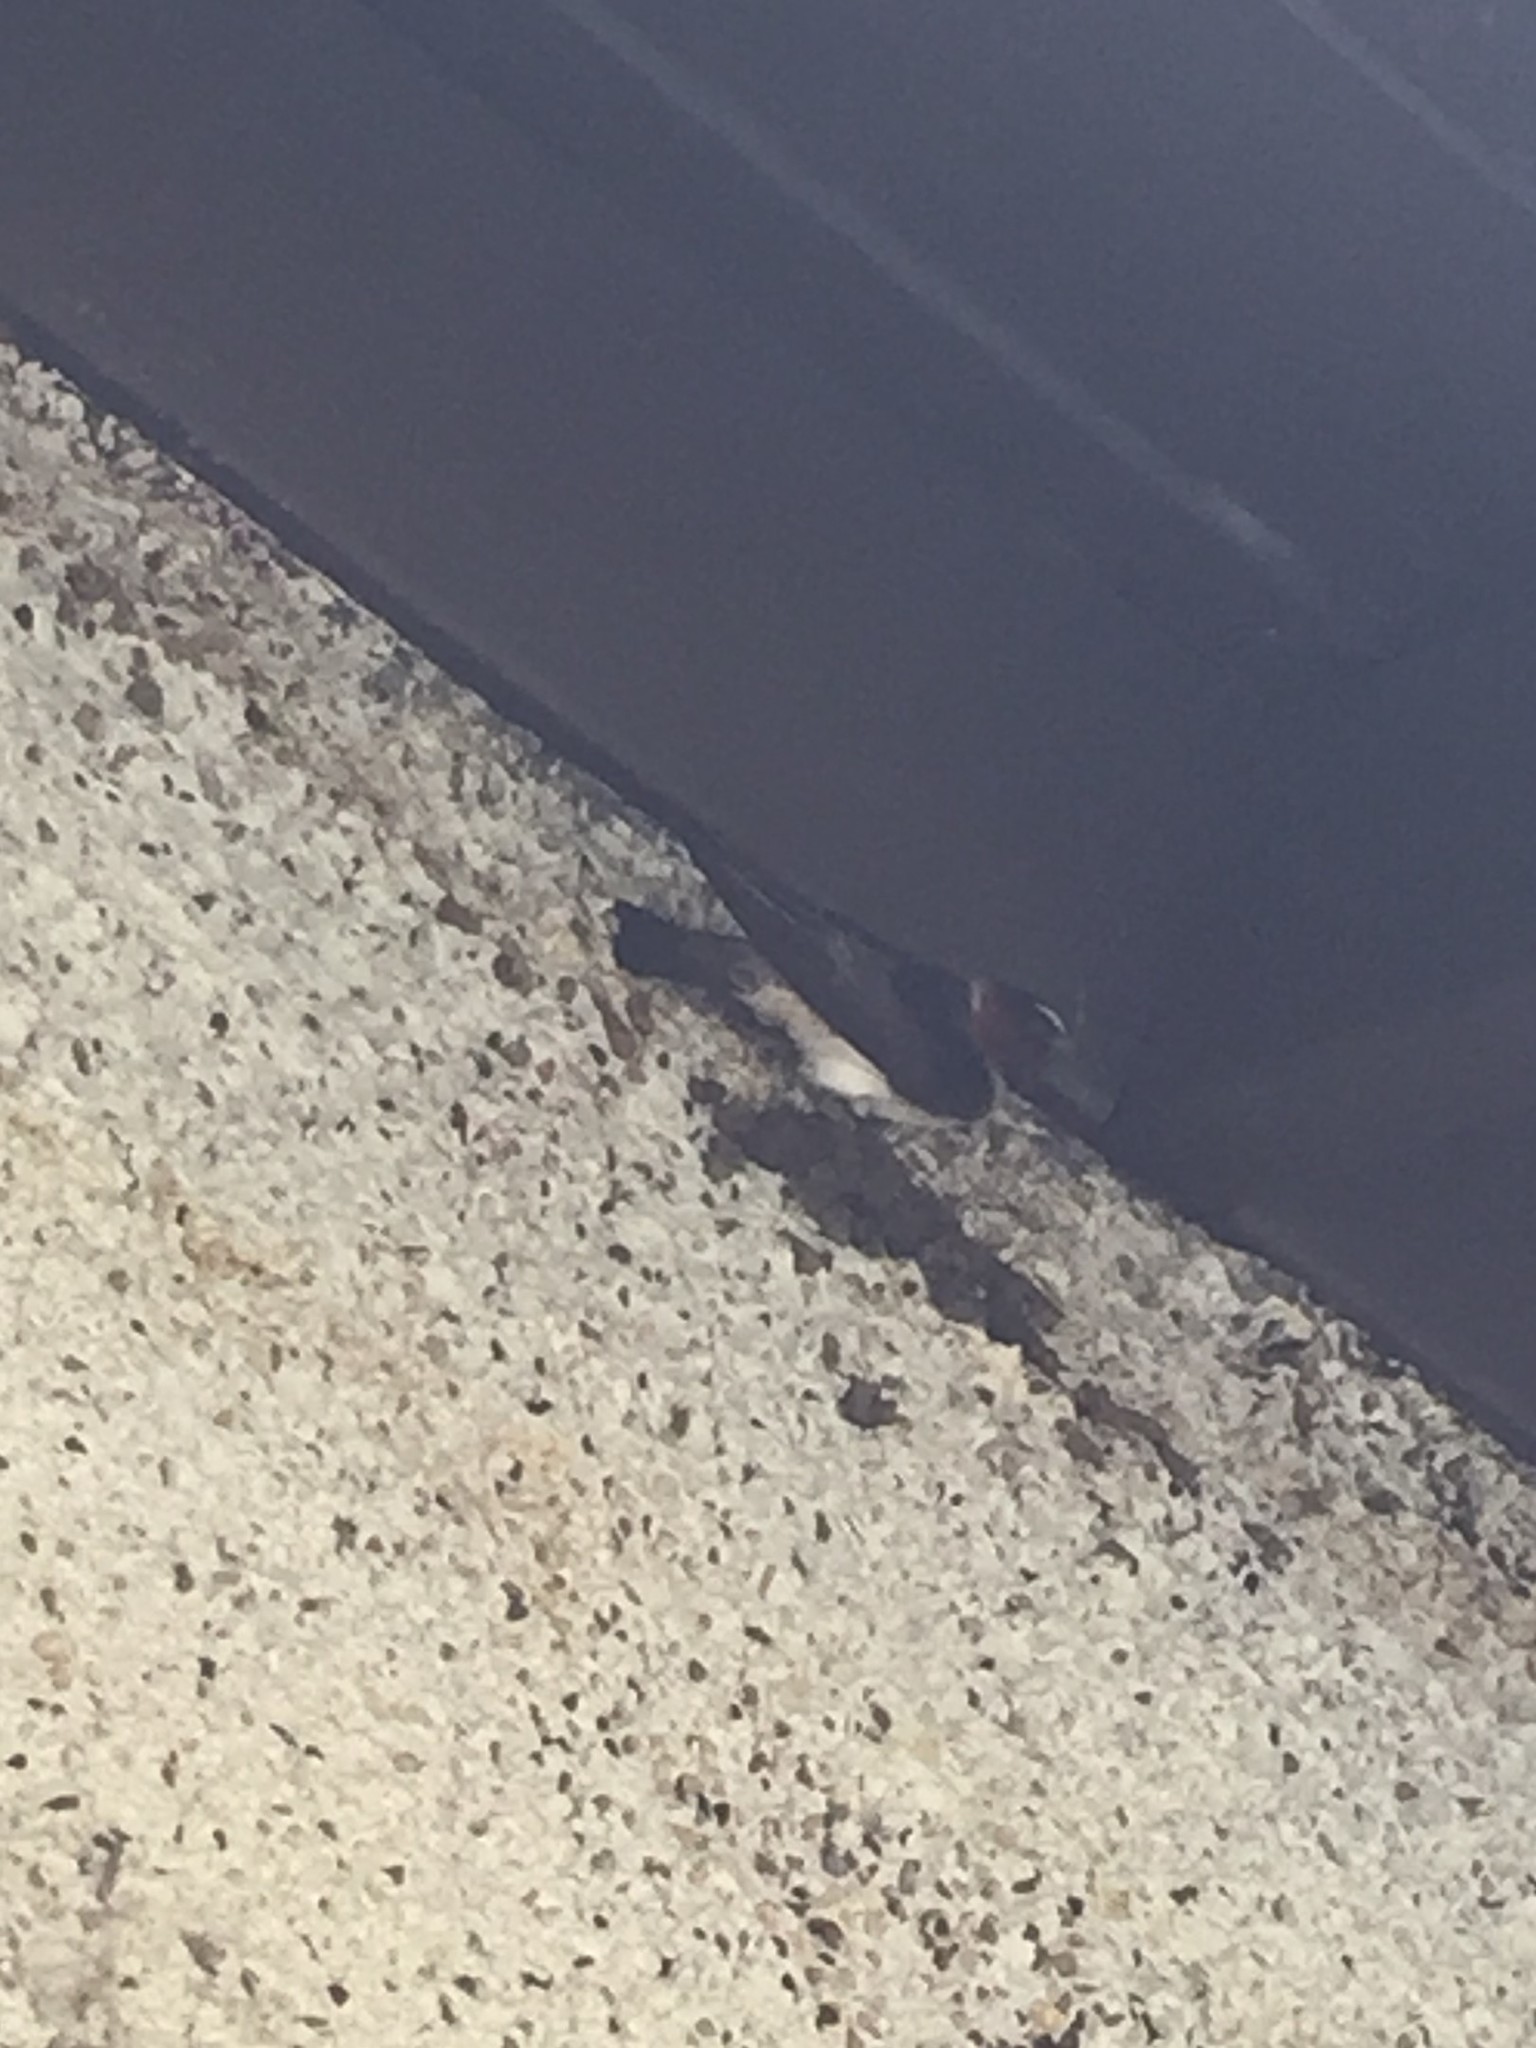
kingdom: Animalia
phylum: Chordata
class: Aves
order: Passeriformes
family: Hirundinidae
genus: Petrochelidon
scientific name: Petrochelidon pyrrhonota
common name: American cliff swallow
